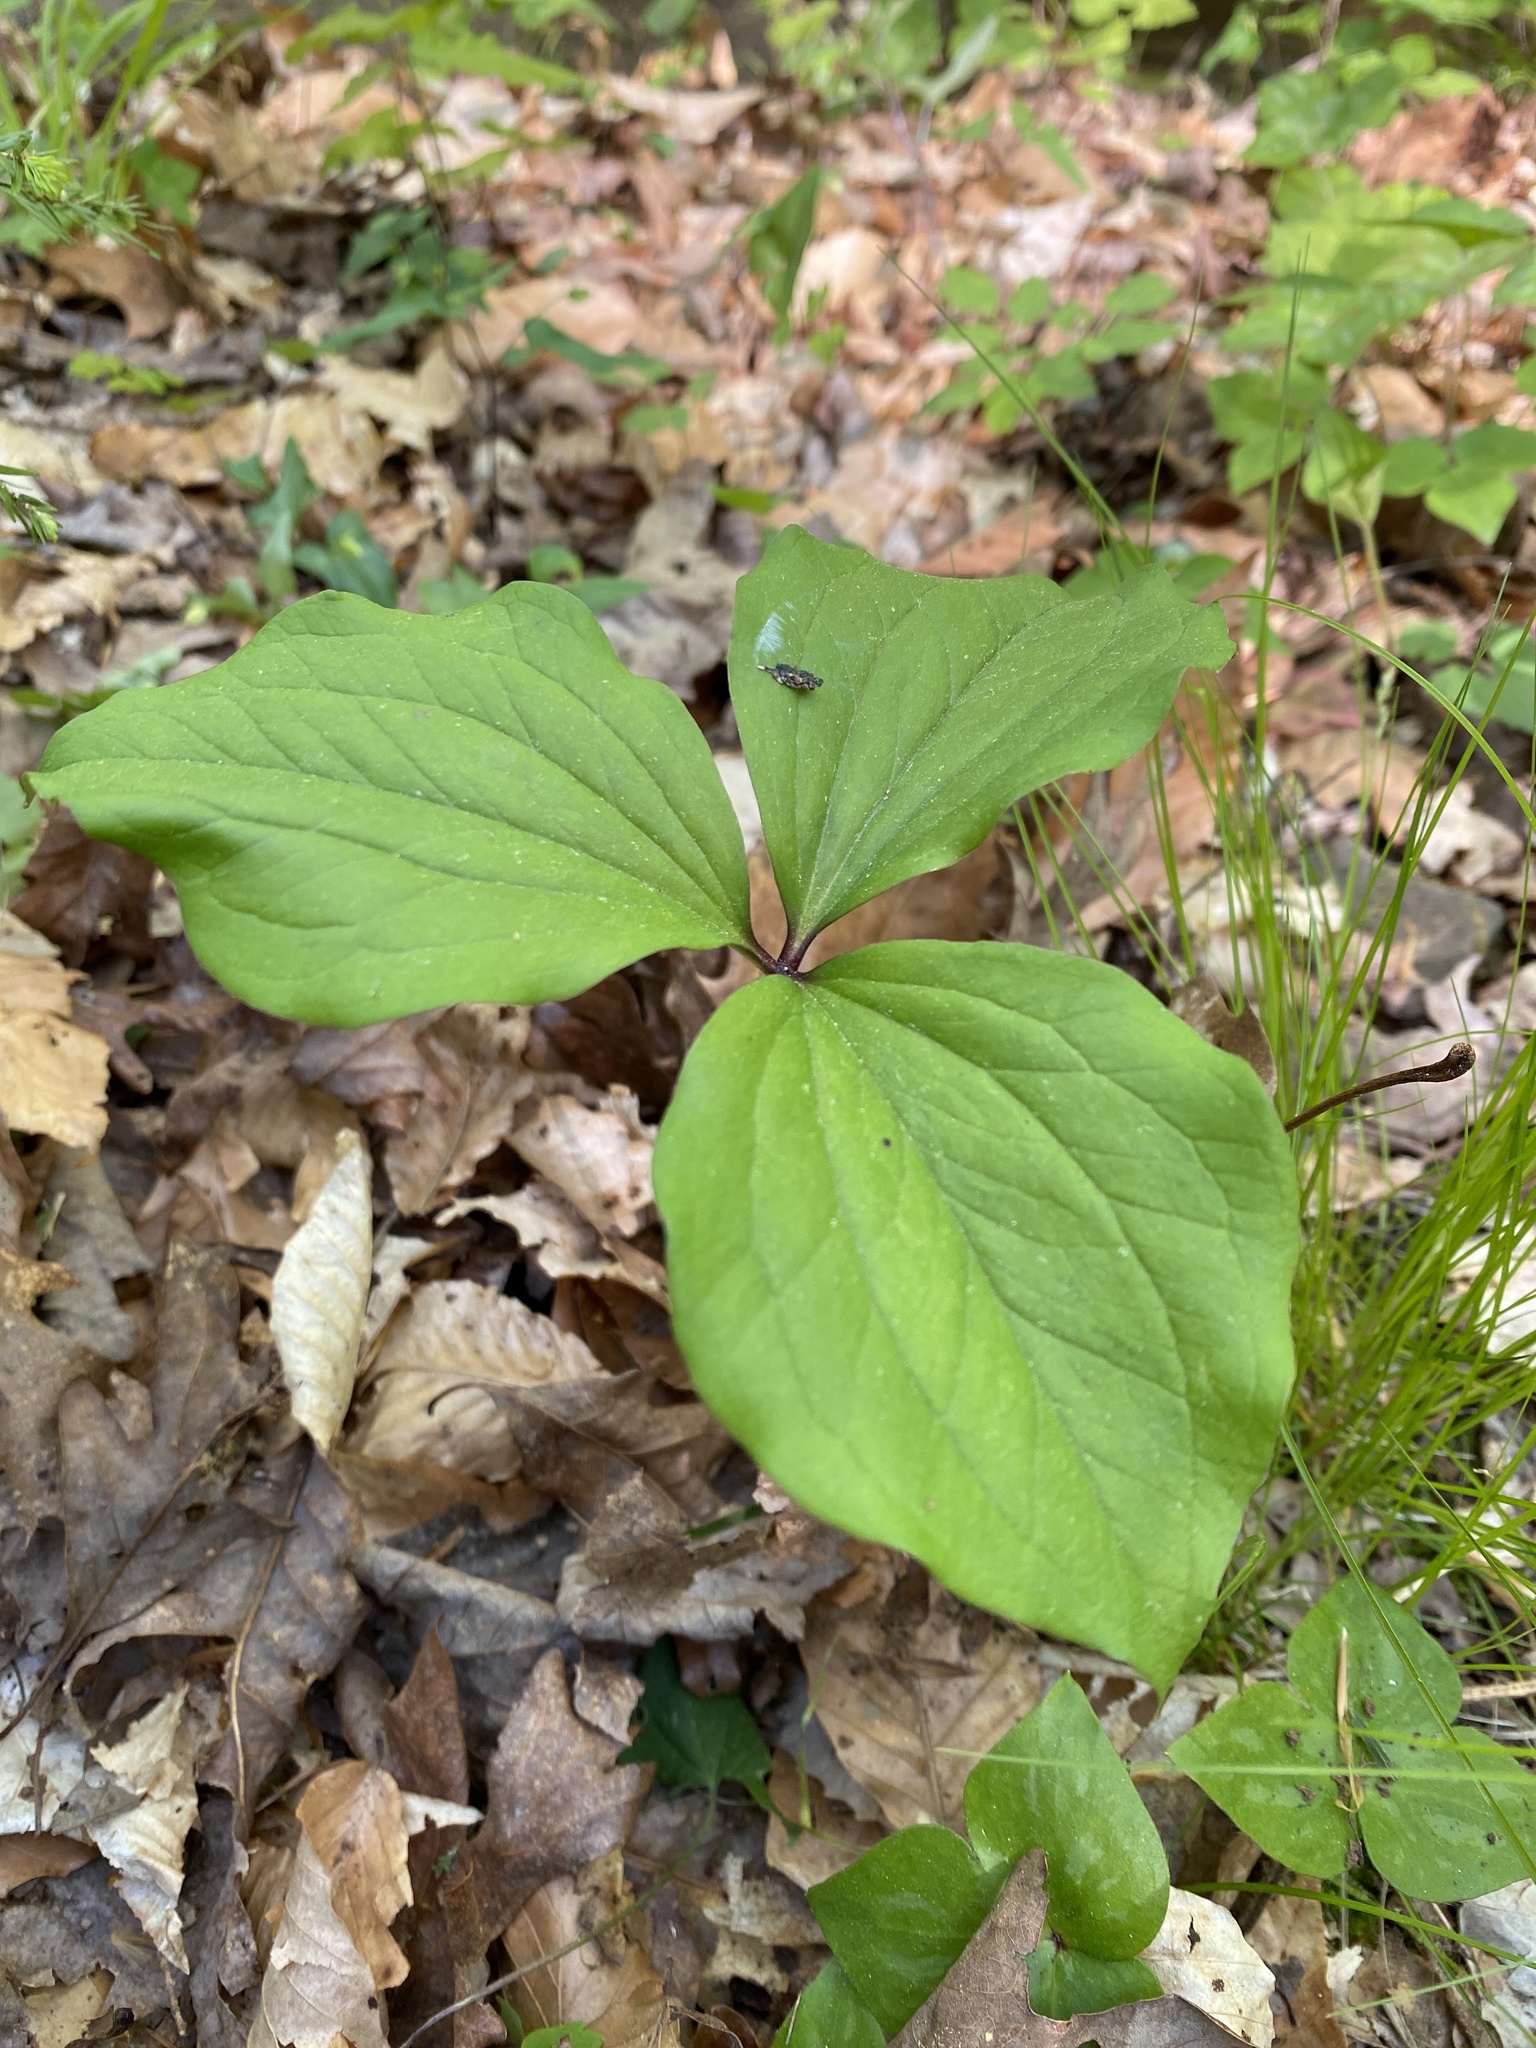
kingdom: Plantae
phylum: Tracheophyta
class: Liliopsida
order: Liliales
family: Melanthiaceae
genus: Trillium
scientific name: Trillium catesbaei
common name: Bashful trillium
